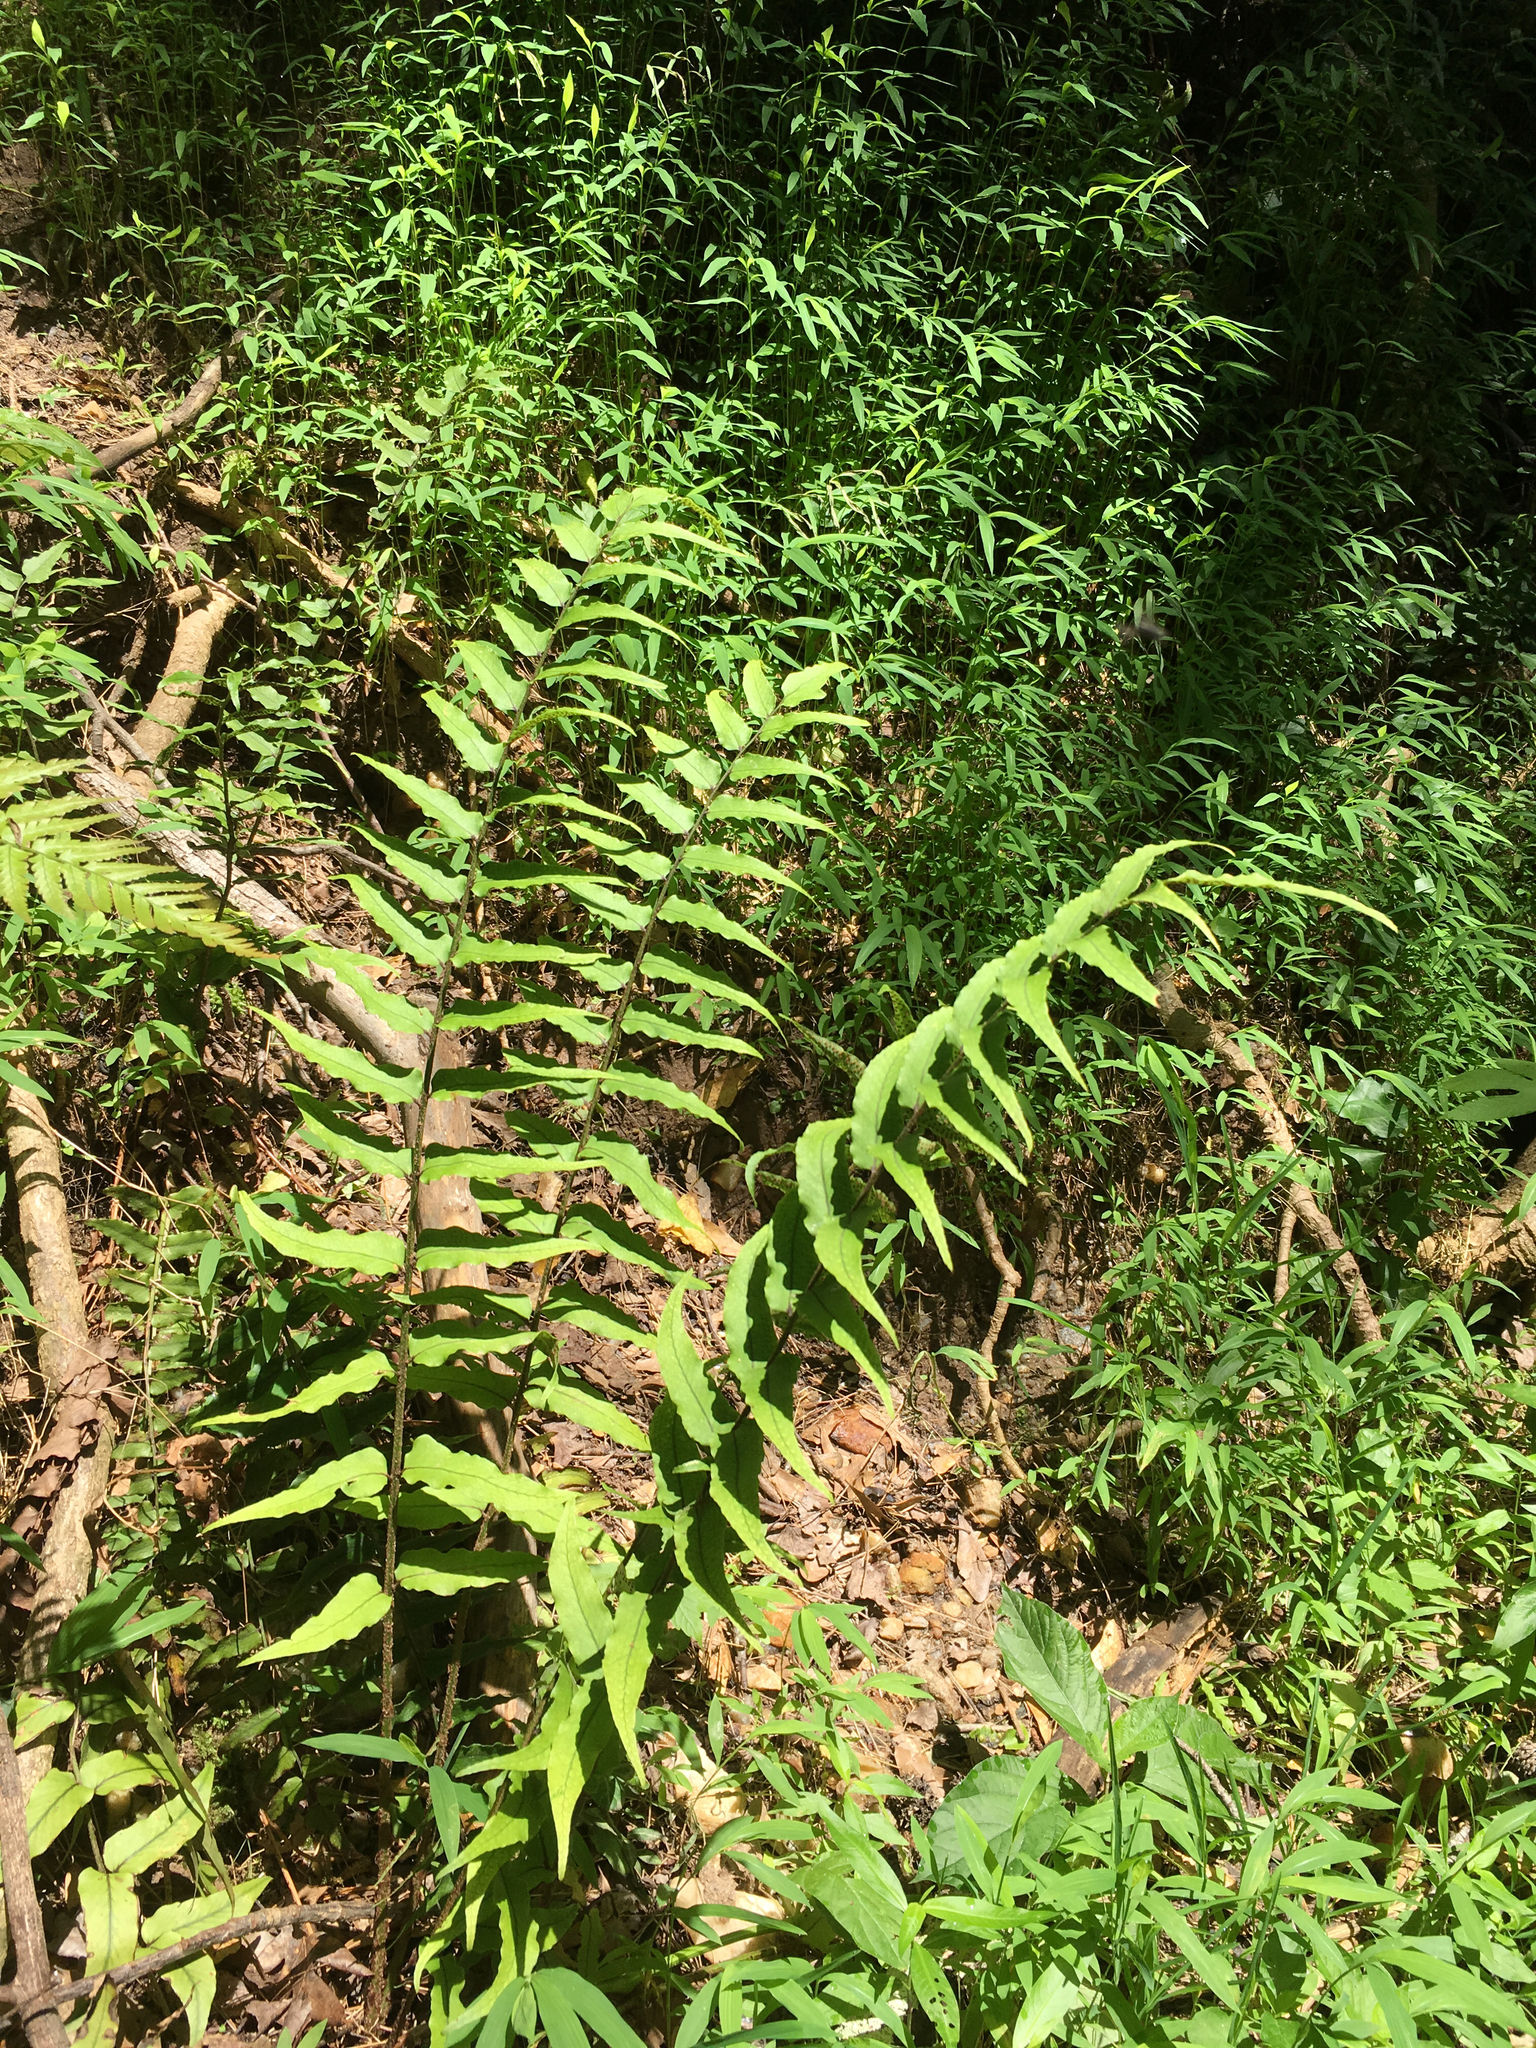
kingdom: Plantae
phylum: Tracheophyta
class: Polypodiopsida
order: Polypodiales
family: Dryopteridaceae
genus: Cyrtomium
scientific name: Cyrtomium fortunei
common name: Asian netvein hollyfern
